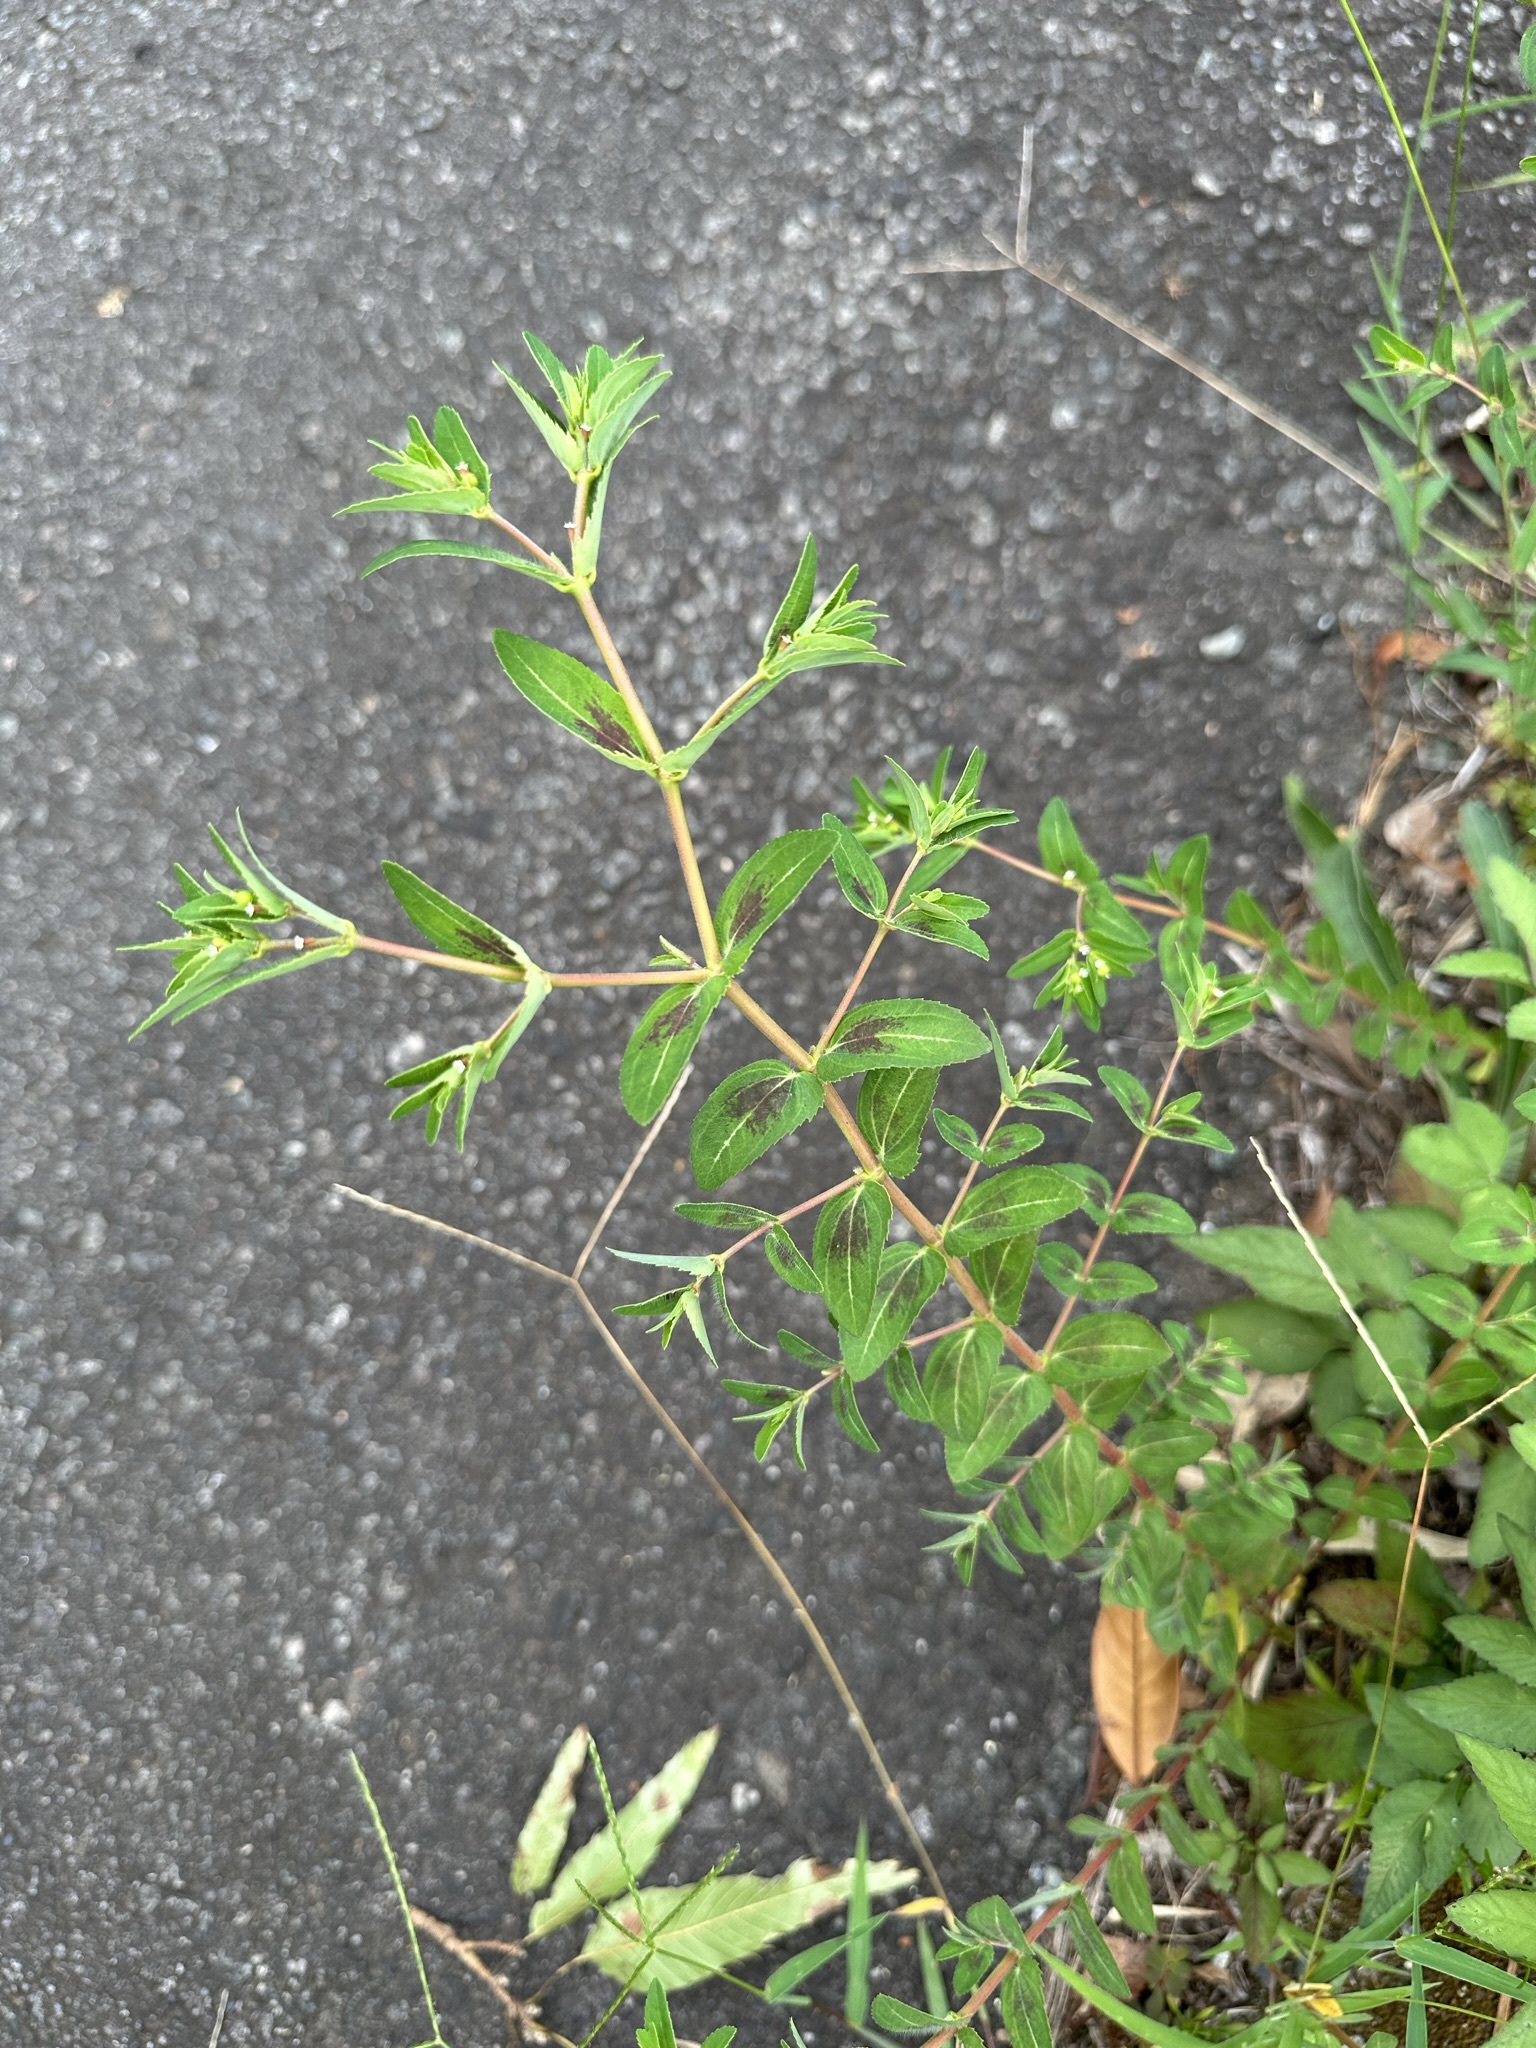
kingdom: Plantae
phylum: Tracheophyta
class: Magnoliopsida
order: Malpighiales
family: Euphorbiaceae
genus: Euphorbia
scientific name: Euphorbia nutans
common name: Eyebane
